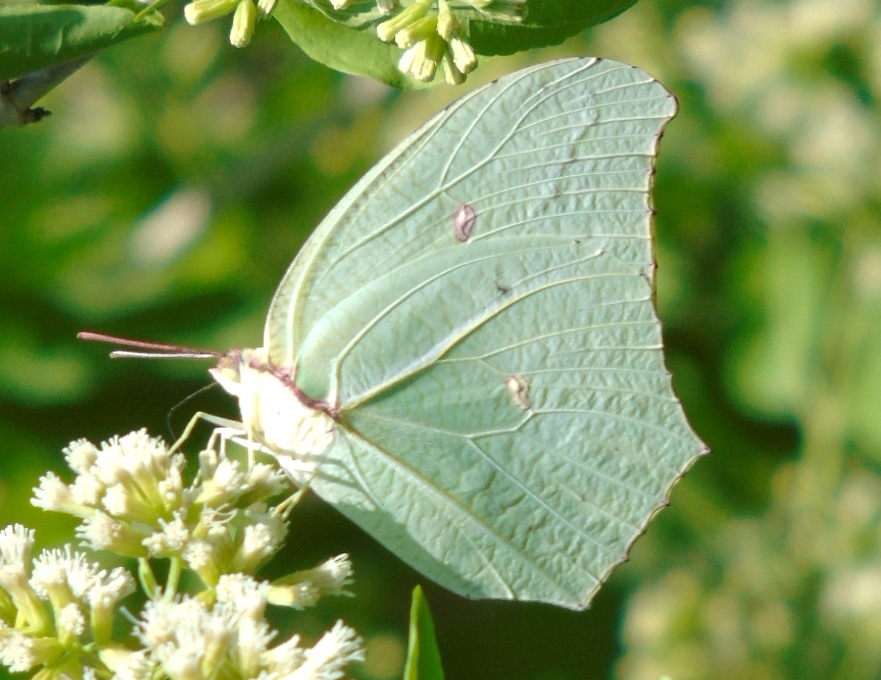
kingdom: Animalia
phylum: Arthropoda
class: Insecta
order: Lepidoptera
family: Pieridae
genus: Anteos
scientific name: Anteos
